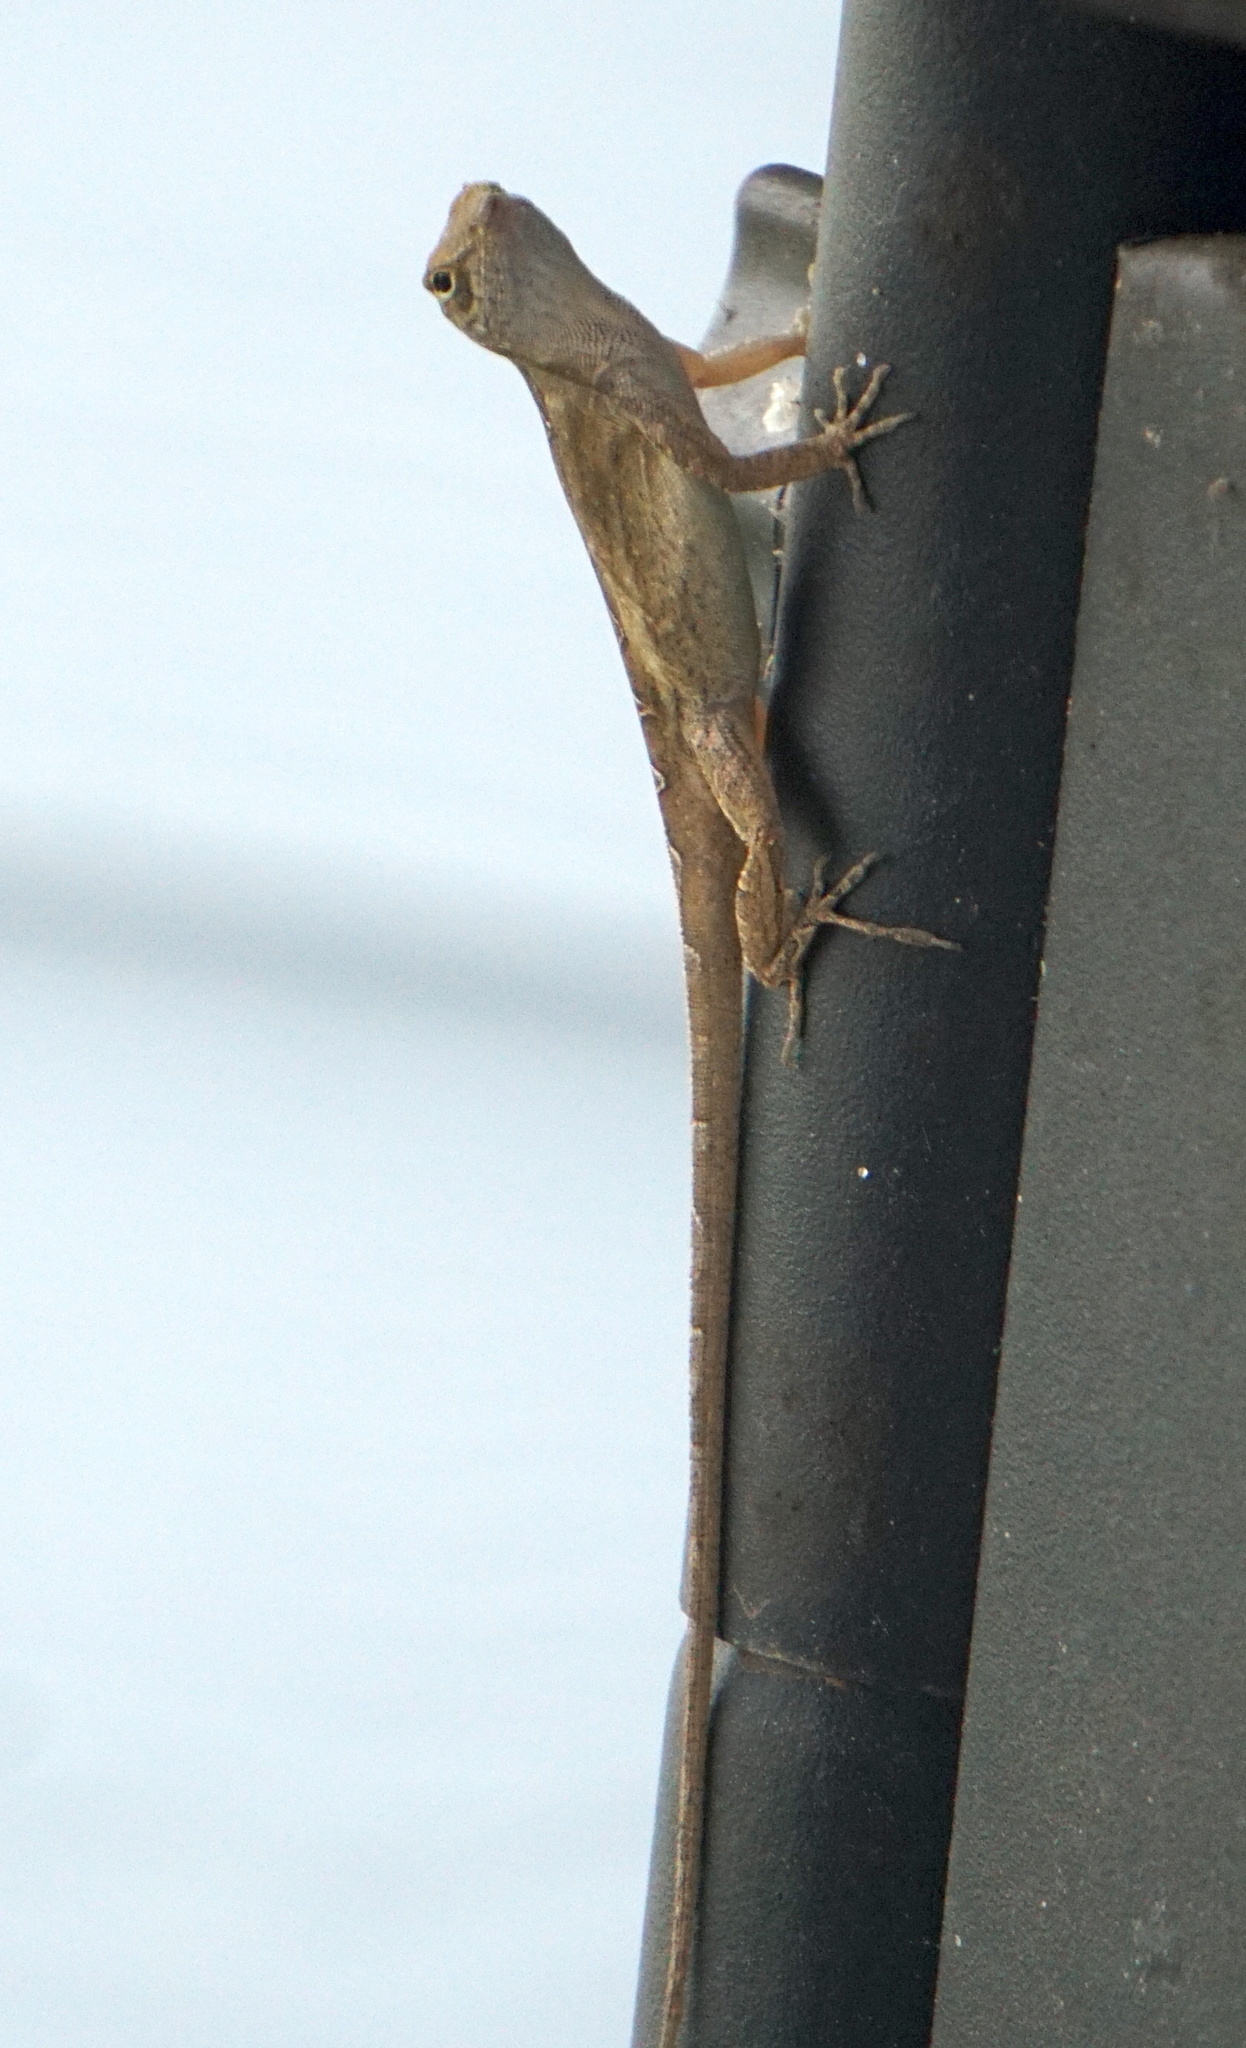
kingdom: Animalia
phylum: Chordata
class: Squamata
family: Dactyloidae
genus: Anolis
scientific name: Anolis sagrei
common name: Brown anole
